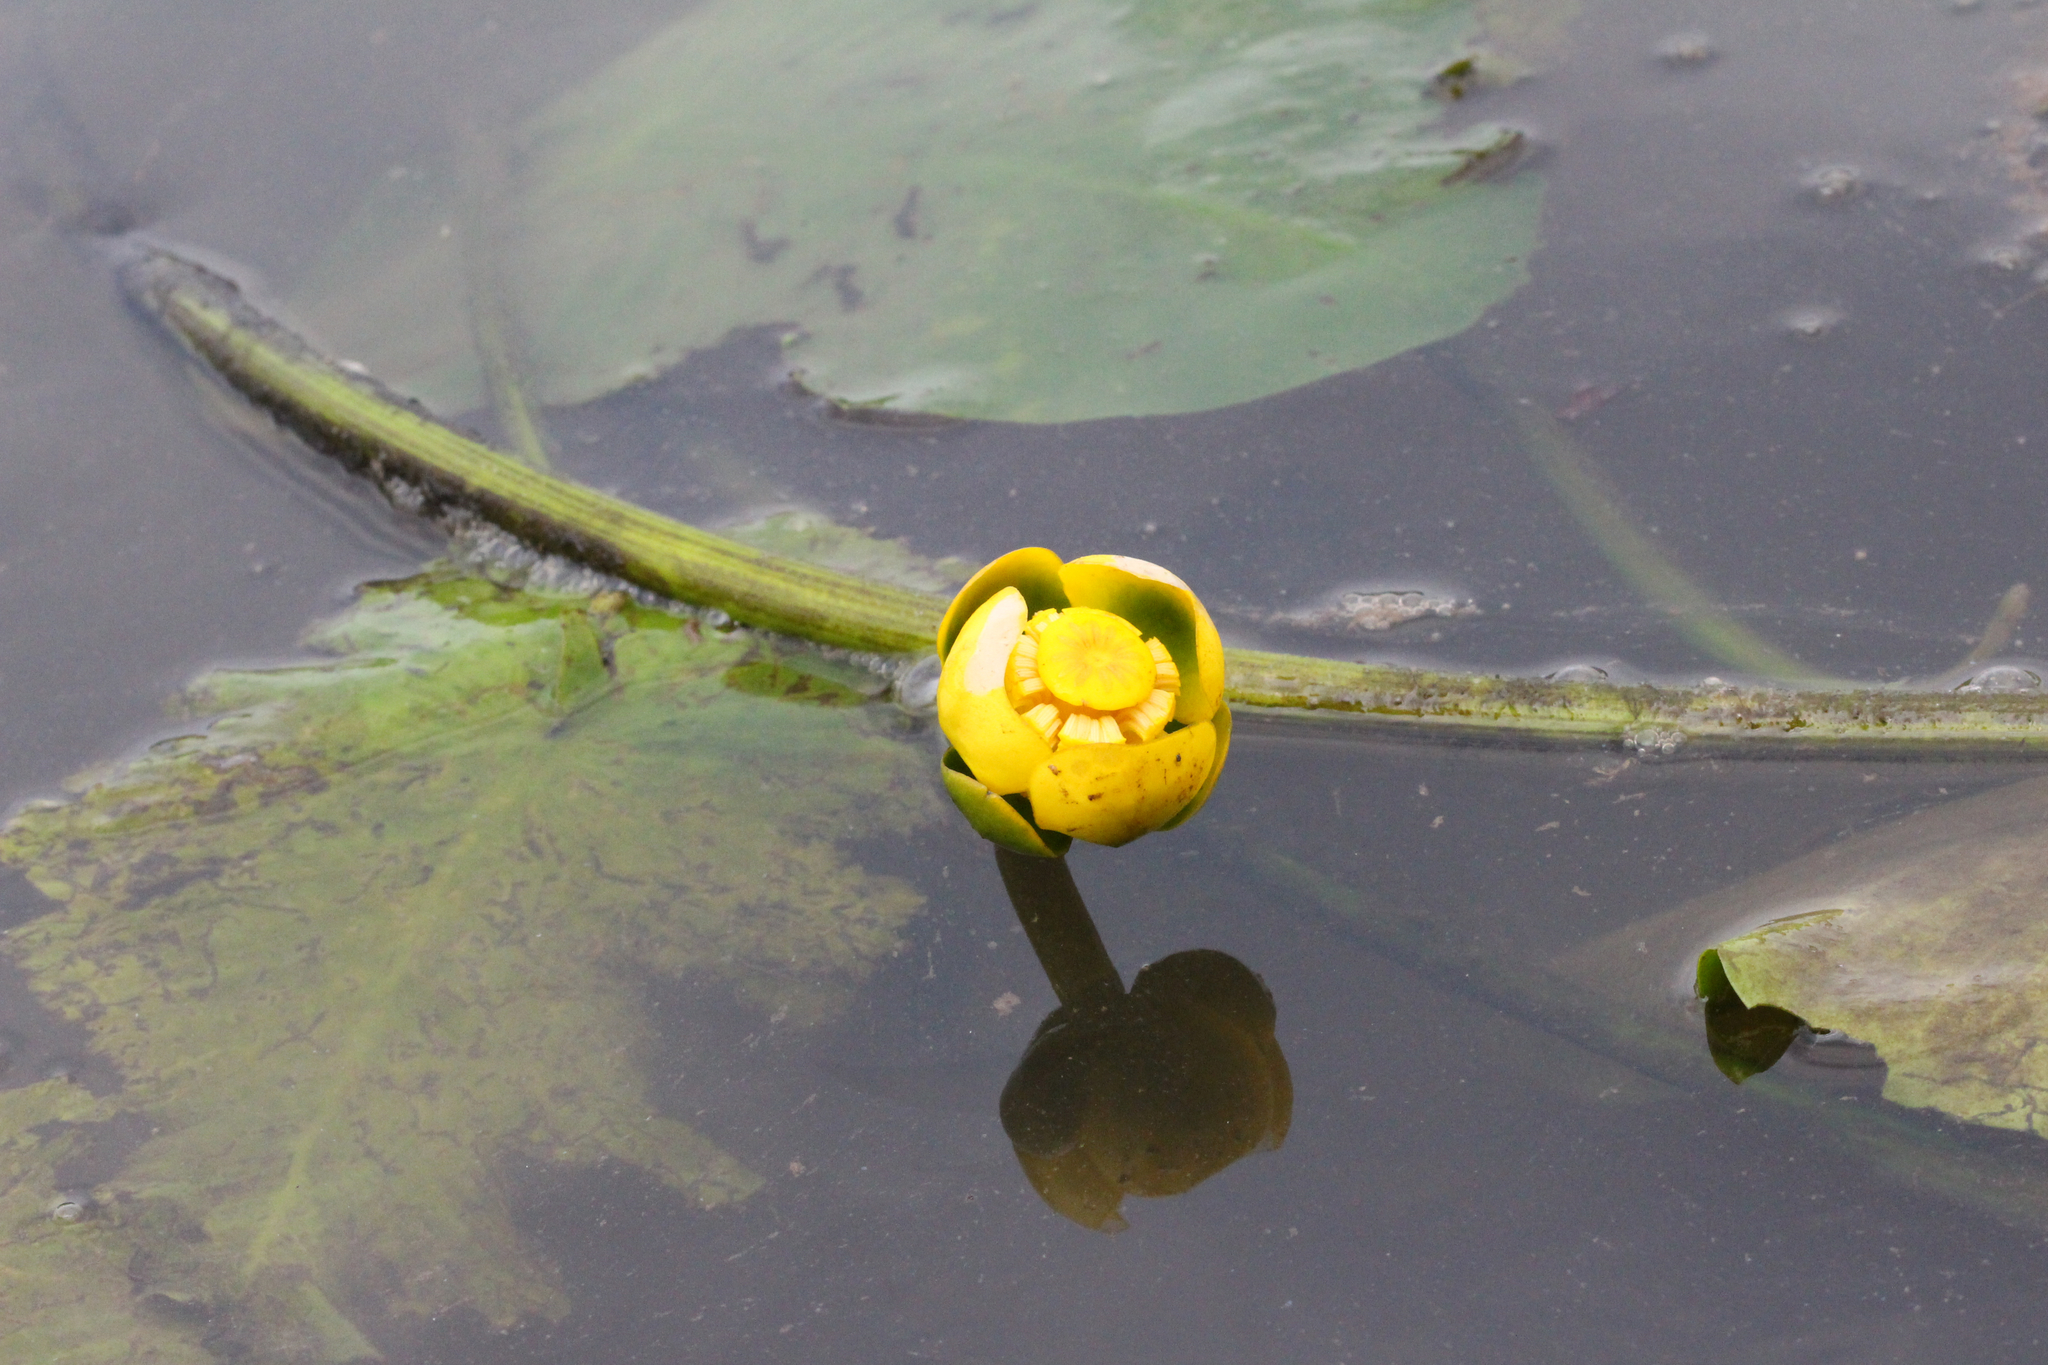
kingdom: Plantae
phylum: Tracheophyta
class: Magnoliopsida
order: Nymphaeales
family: Nymphaeaceae
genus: Nuphar
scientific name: Nuphar advena
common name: Spatter-dock
